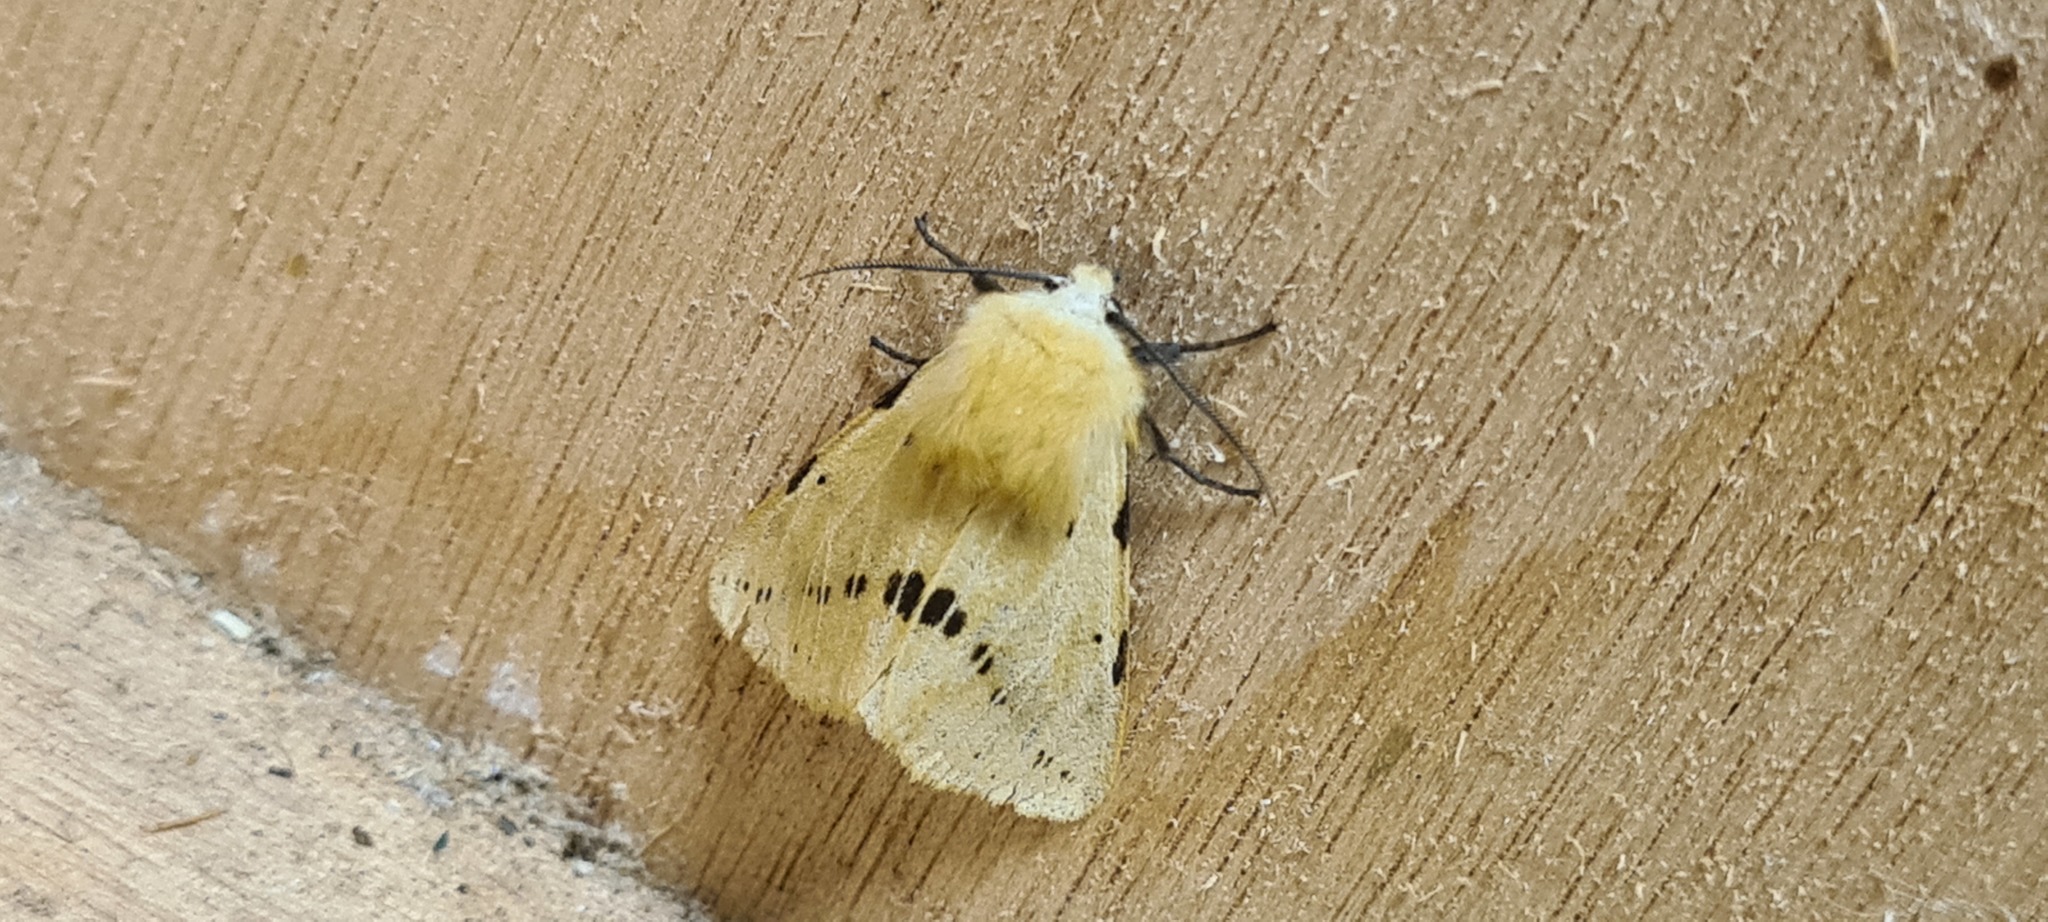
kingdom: Animalia
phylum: Arthropoda
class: Insecta
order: Lepidoptera
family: Erebidae
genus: Spilarctia
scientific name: Spilarctia lutea
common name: Buff ermine
